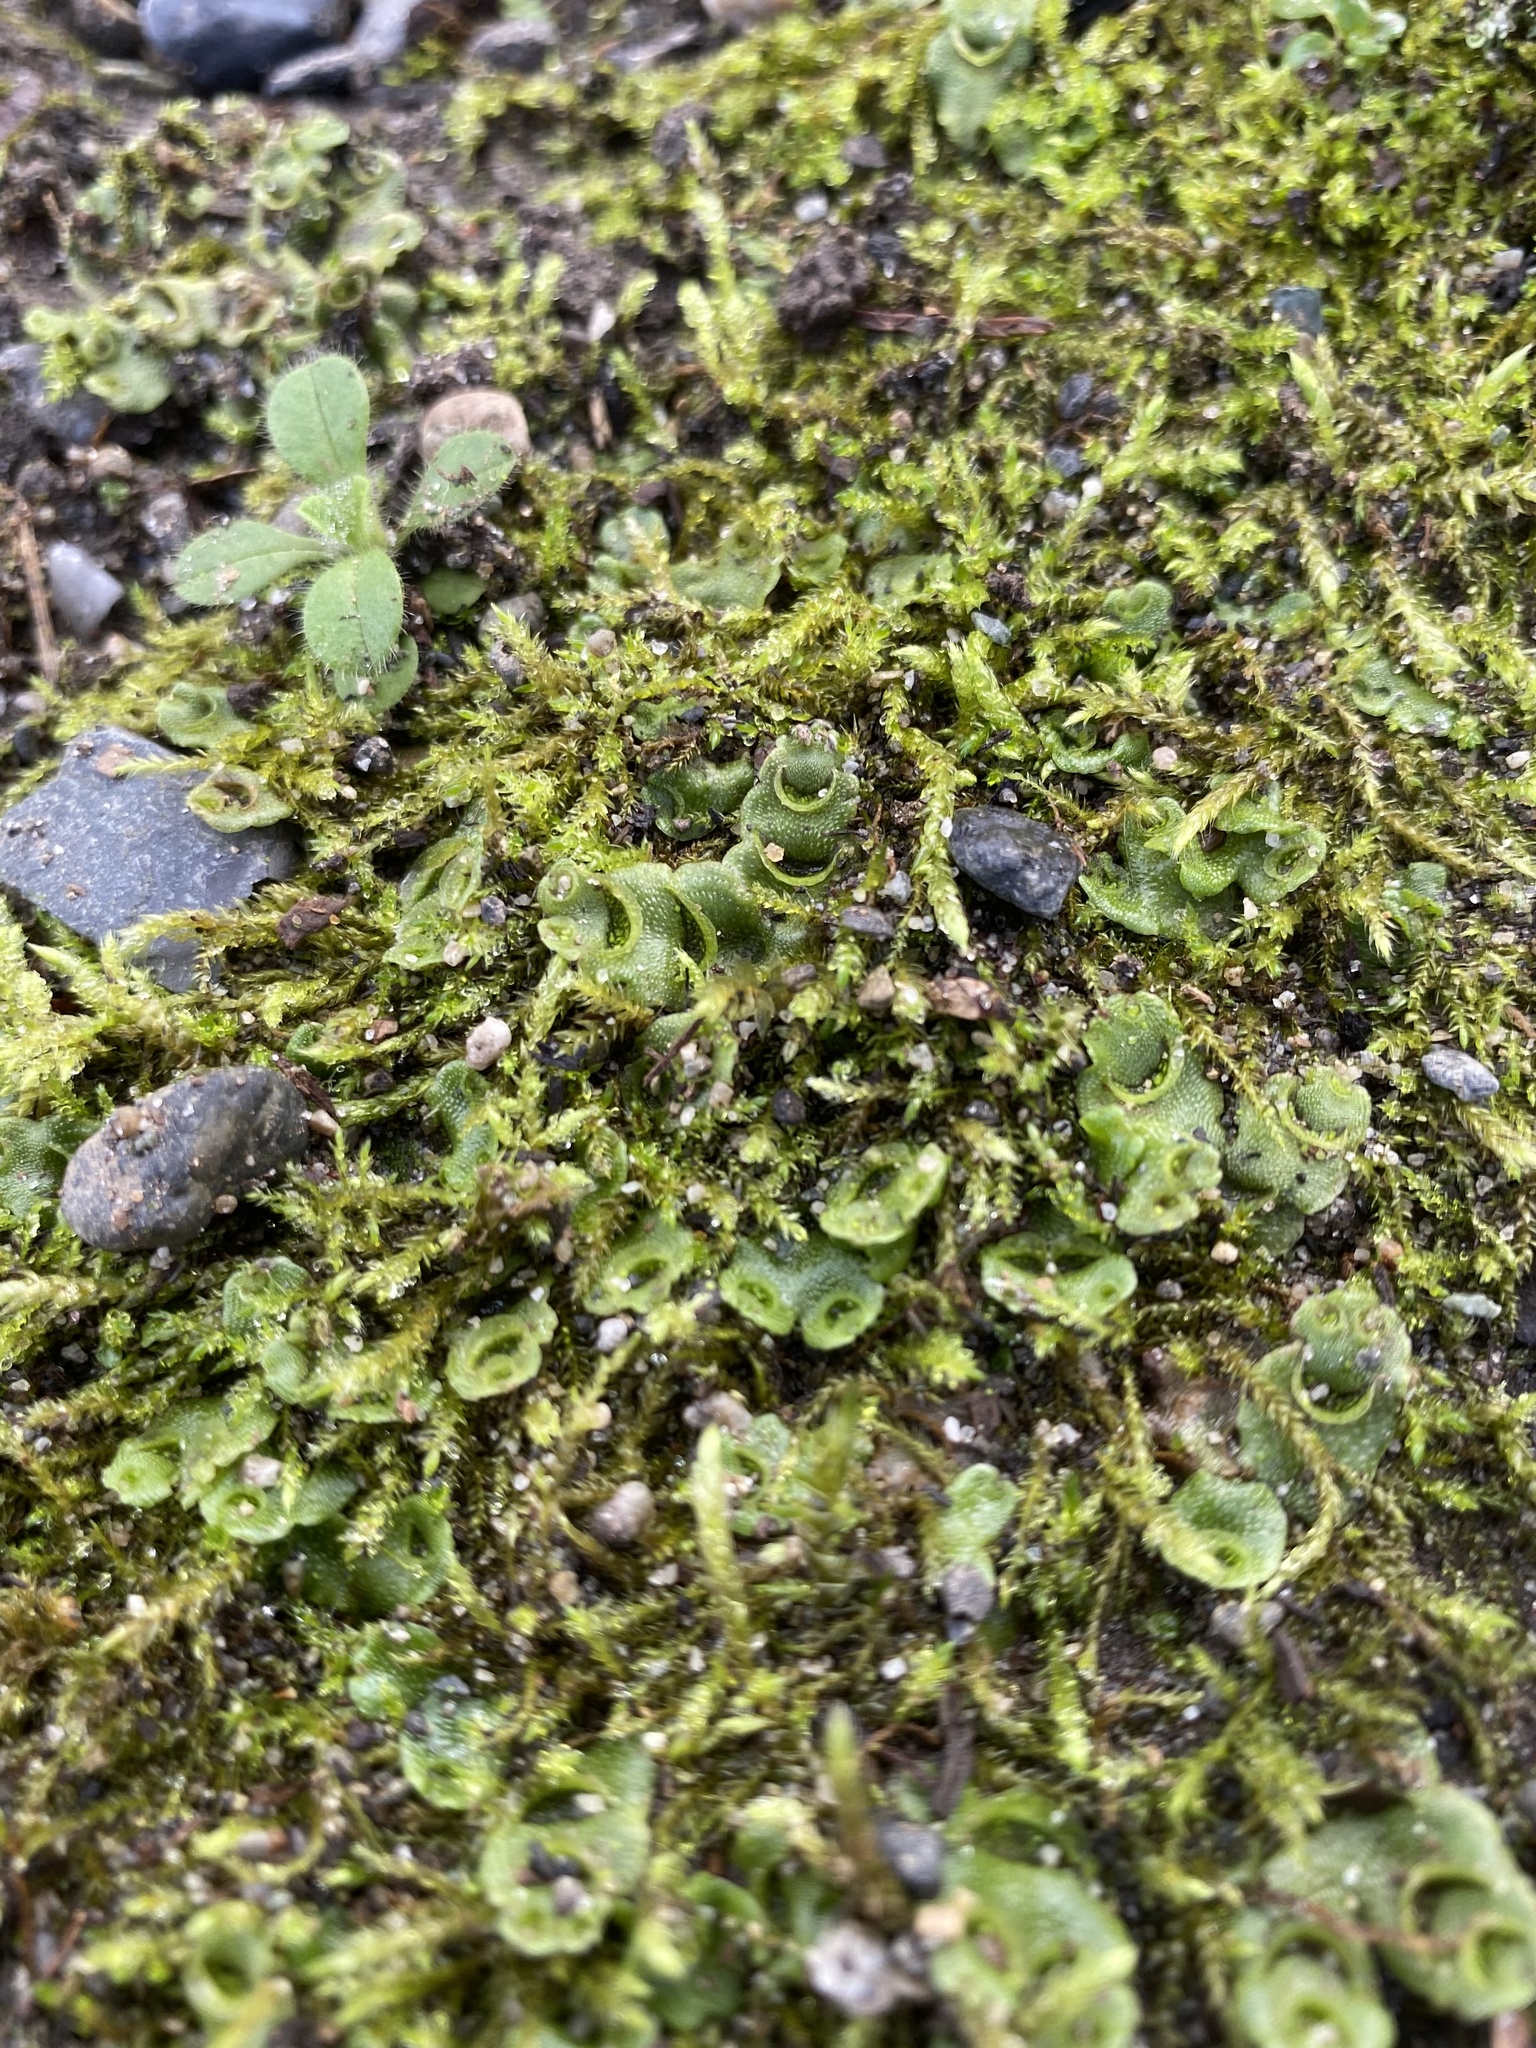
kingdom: Plantae
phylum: Marchantiophyta
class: Marchantiopsida
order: Lunulariales
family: Lunulariaceae
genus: Lunularia
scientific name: Lunularia cruciata
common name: Crescent-cup liverwort
